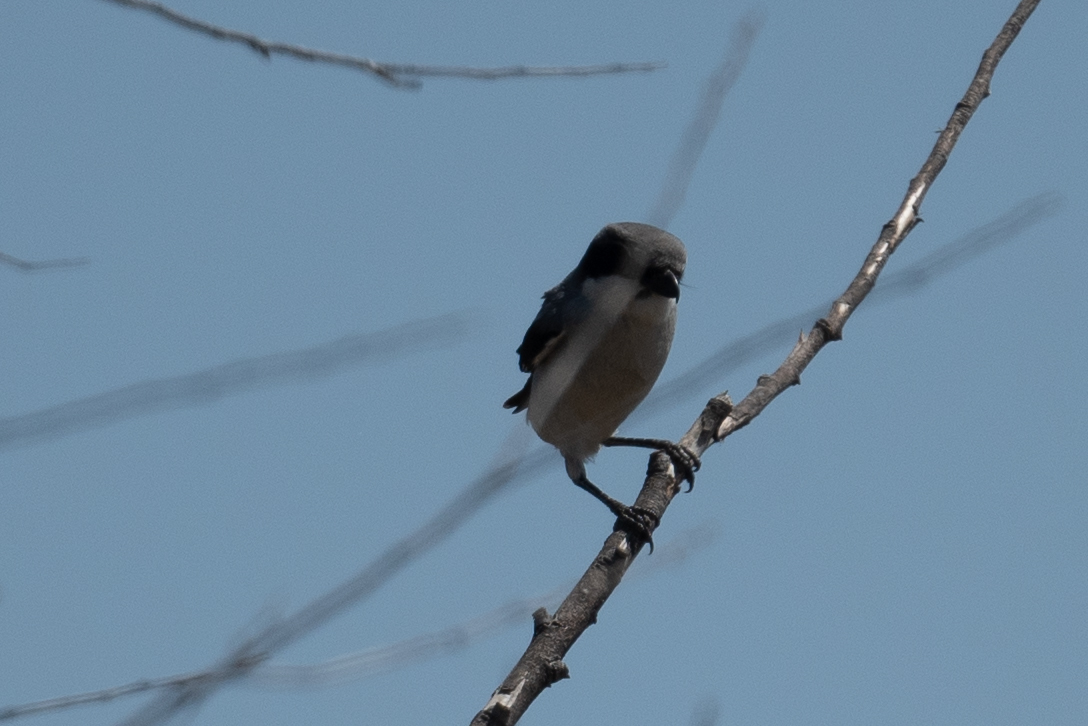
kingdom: Animalia
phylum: Chordata
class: Aves
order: Passeriformes
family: Laniidae
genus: Lanius
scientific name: Lanius ludovicianus
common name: Loggerhead shrike
